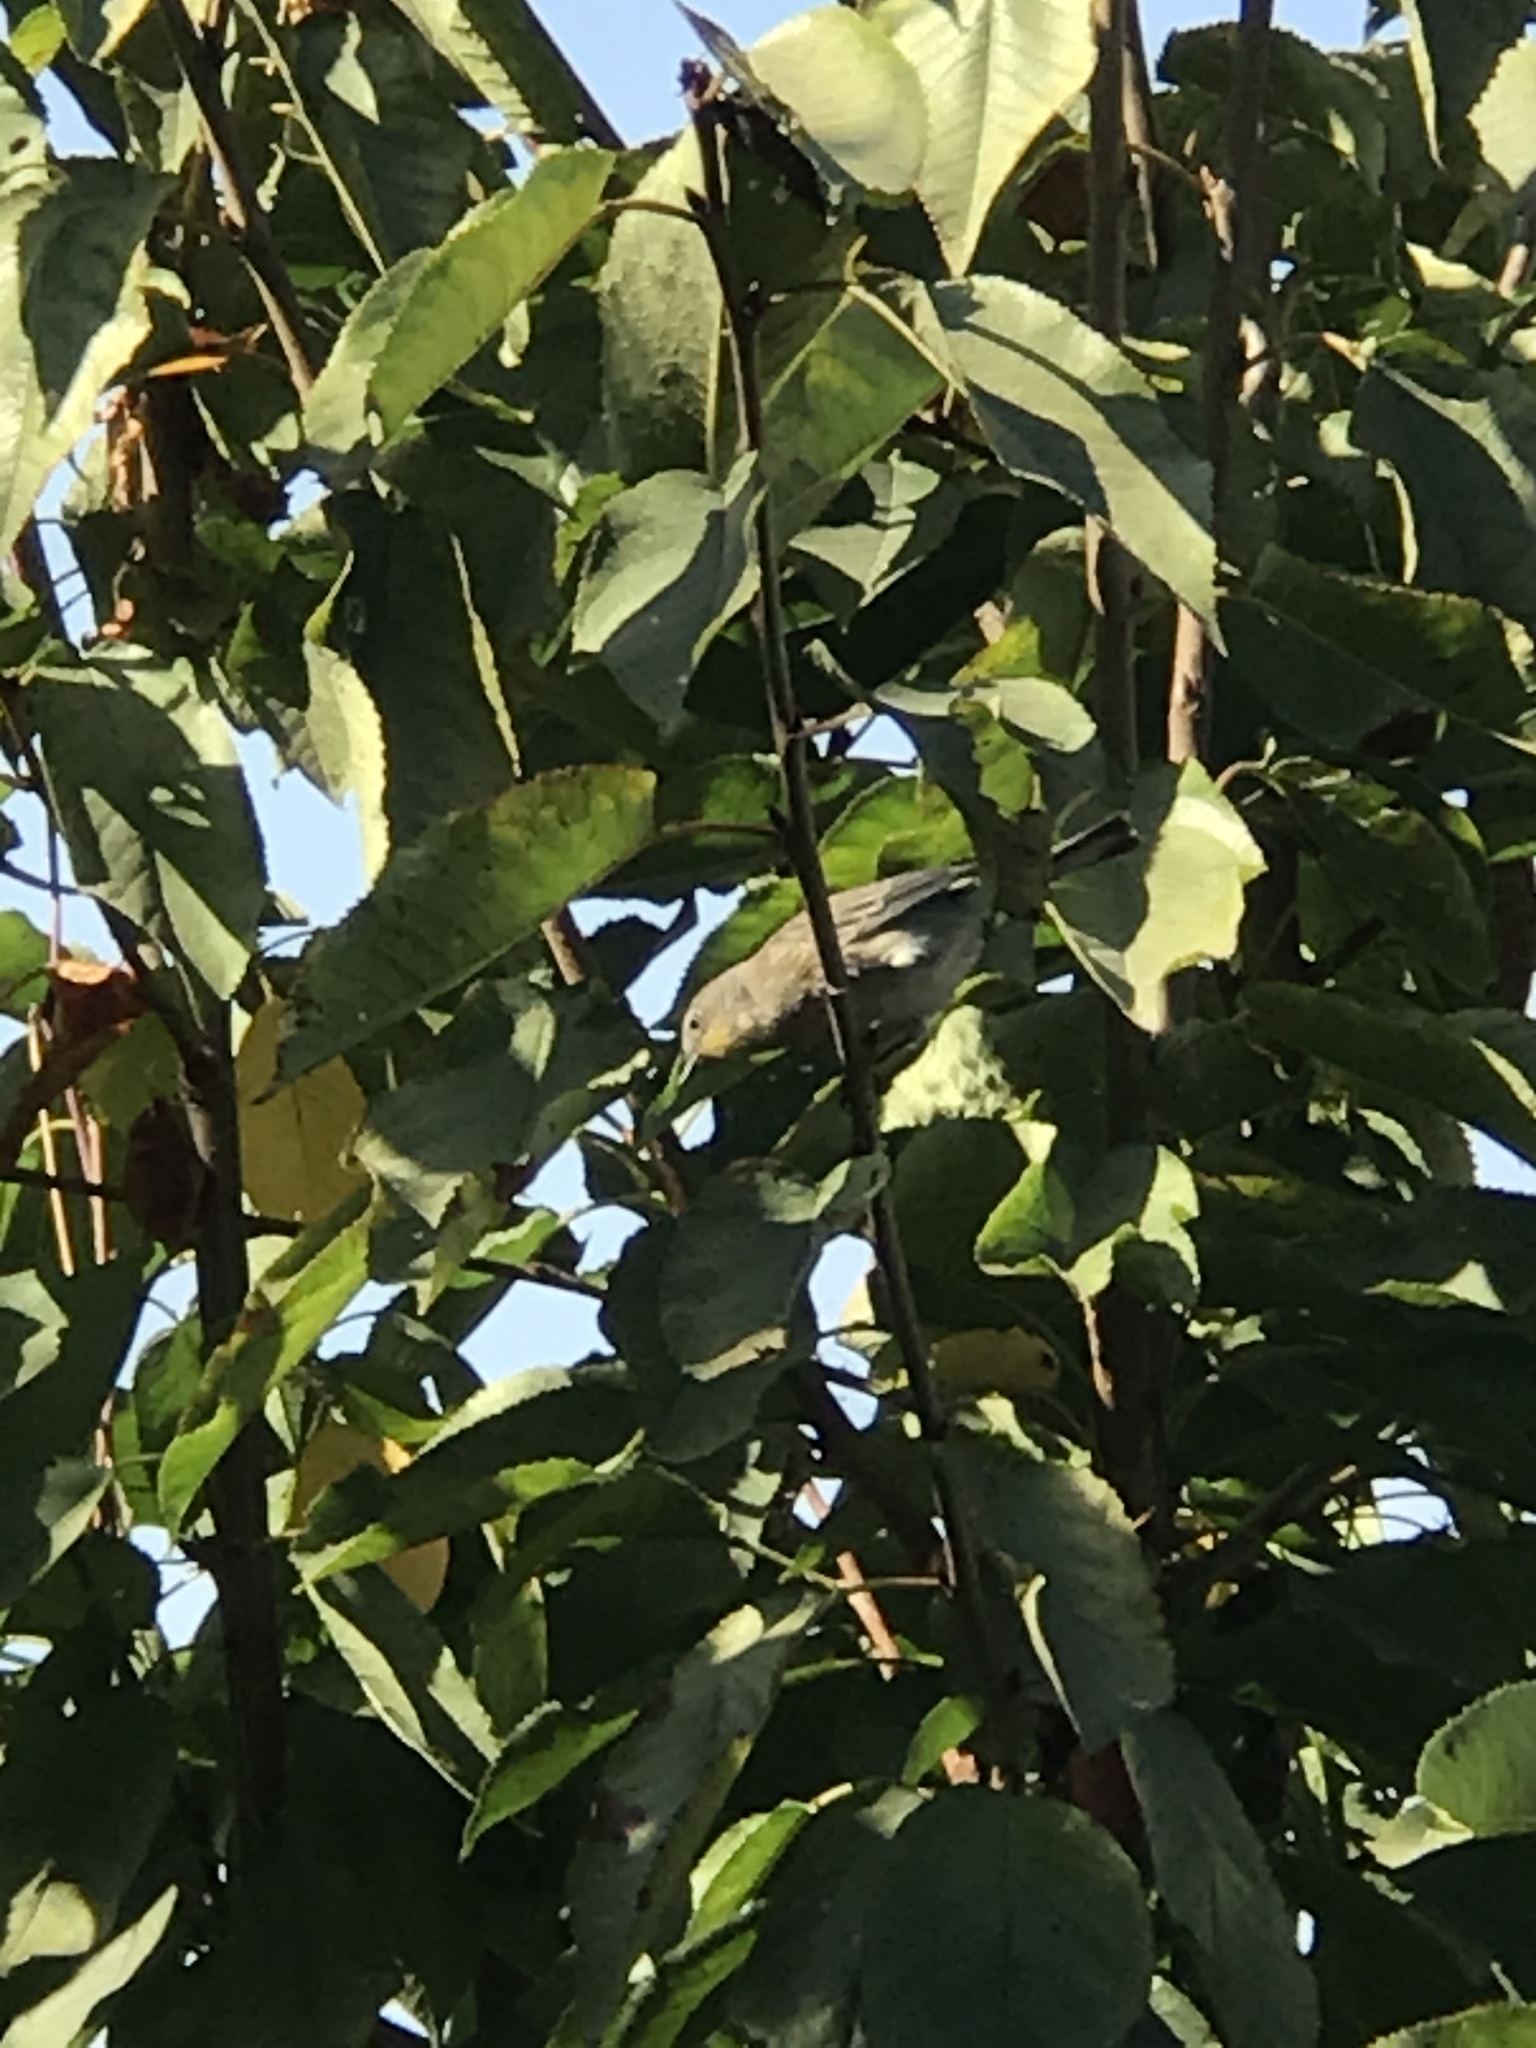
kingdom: Animalia
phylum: Chordata
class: Aves
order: Passeriformes
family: Parulidae
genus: Setophaga
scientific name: Setophaga coronata
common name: Myrtle warbler
